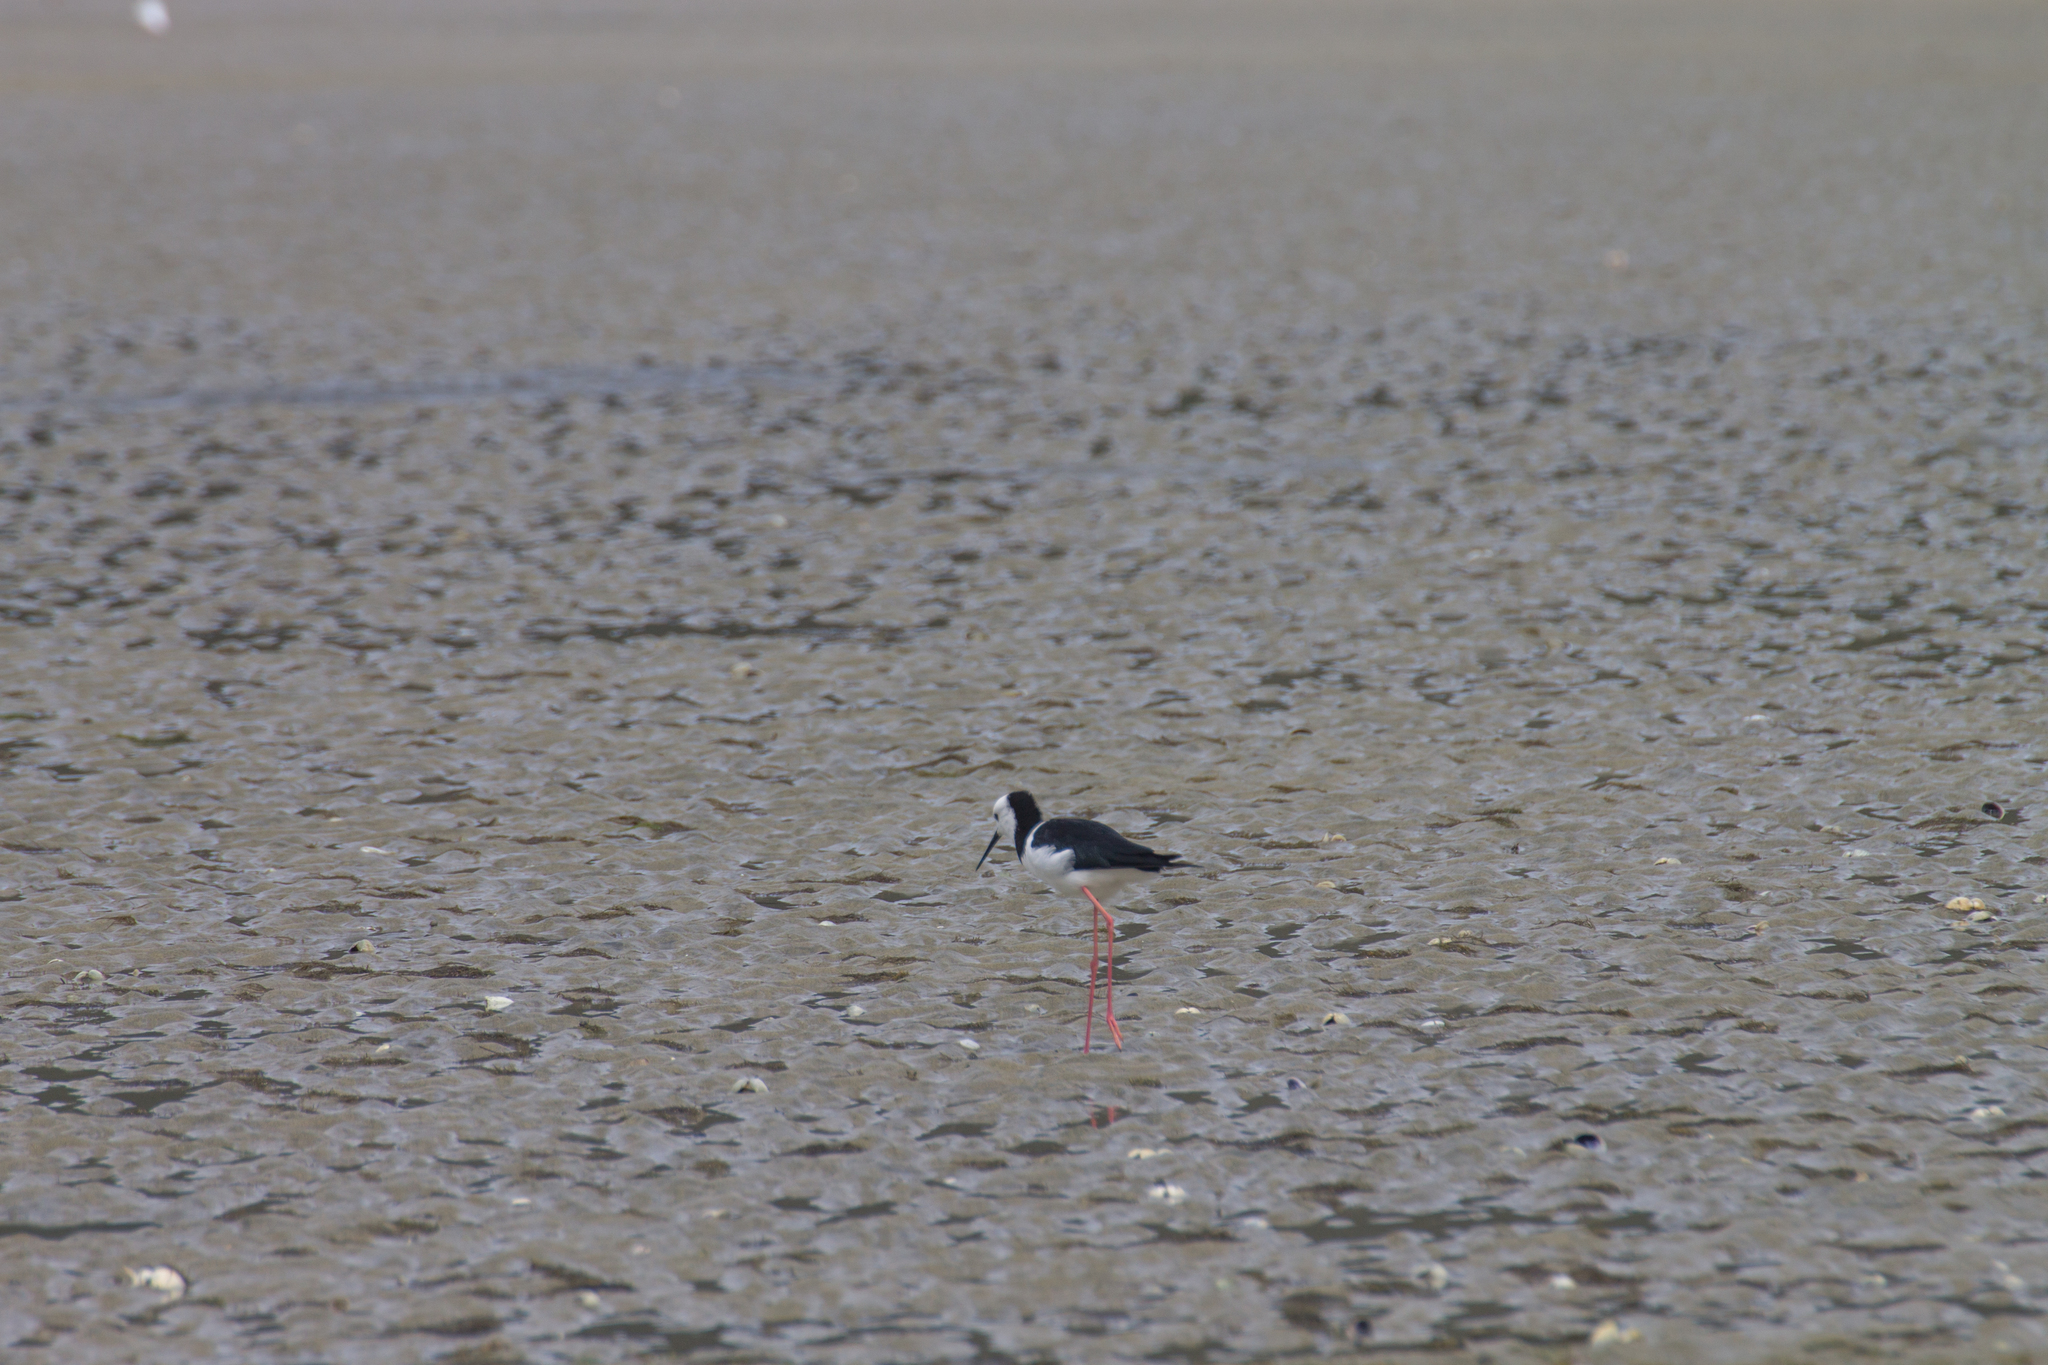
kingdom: Animalia
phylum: Chordata
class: Aves
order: Charadriiformes
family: Recurvirostridae
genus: Himantopus
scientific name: Himantopus leucocephalus
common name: White-headed stilt
